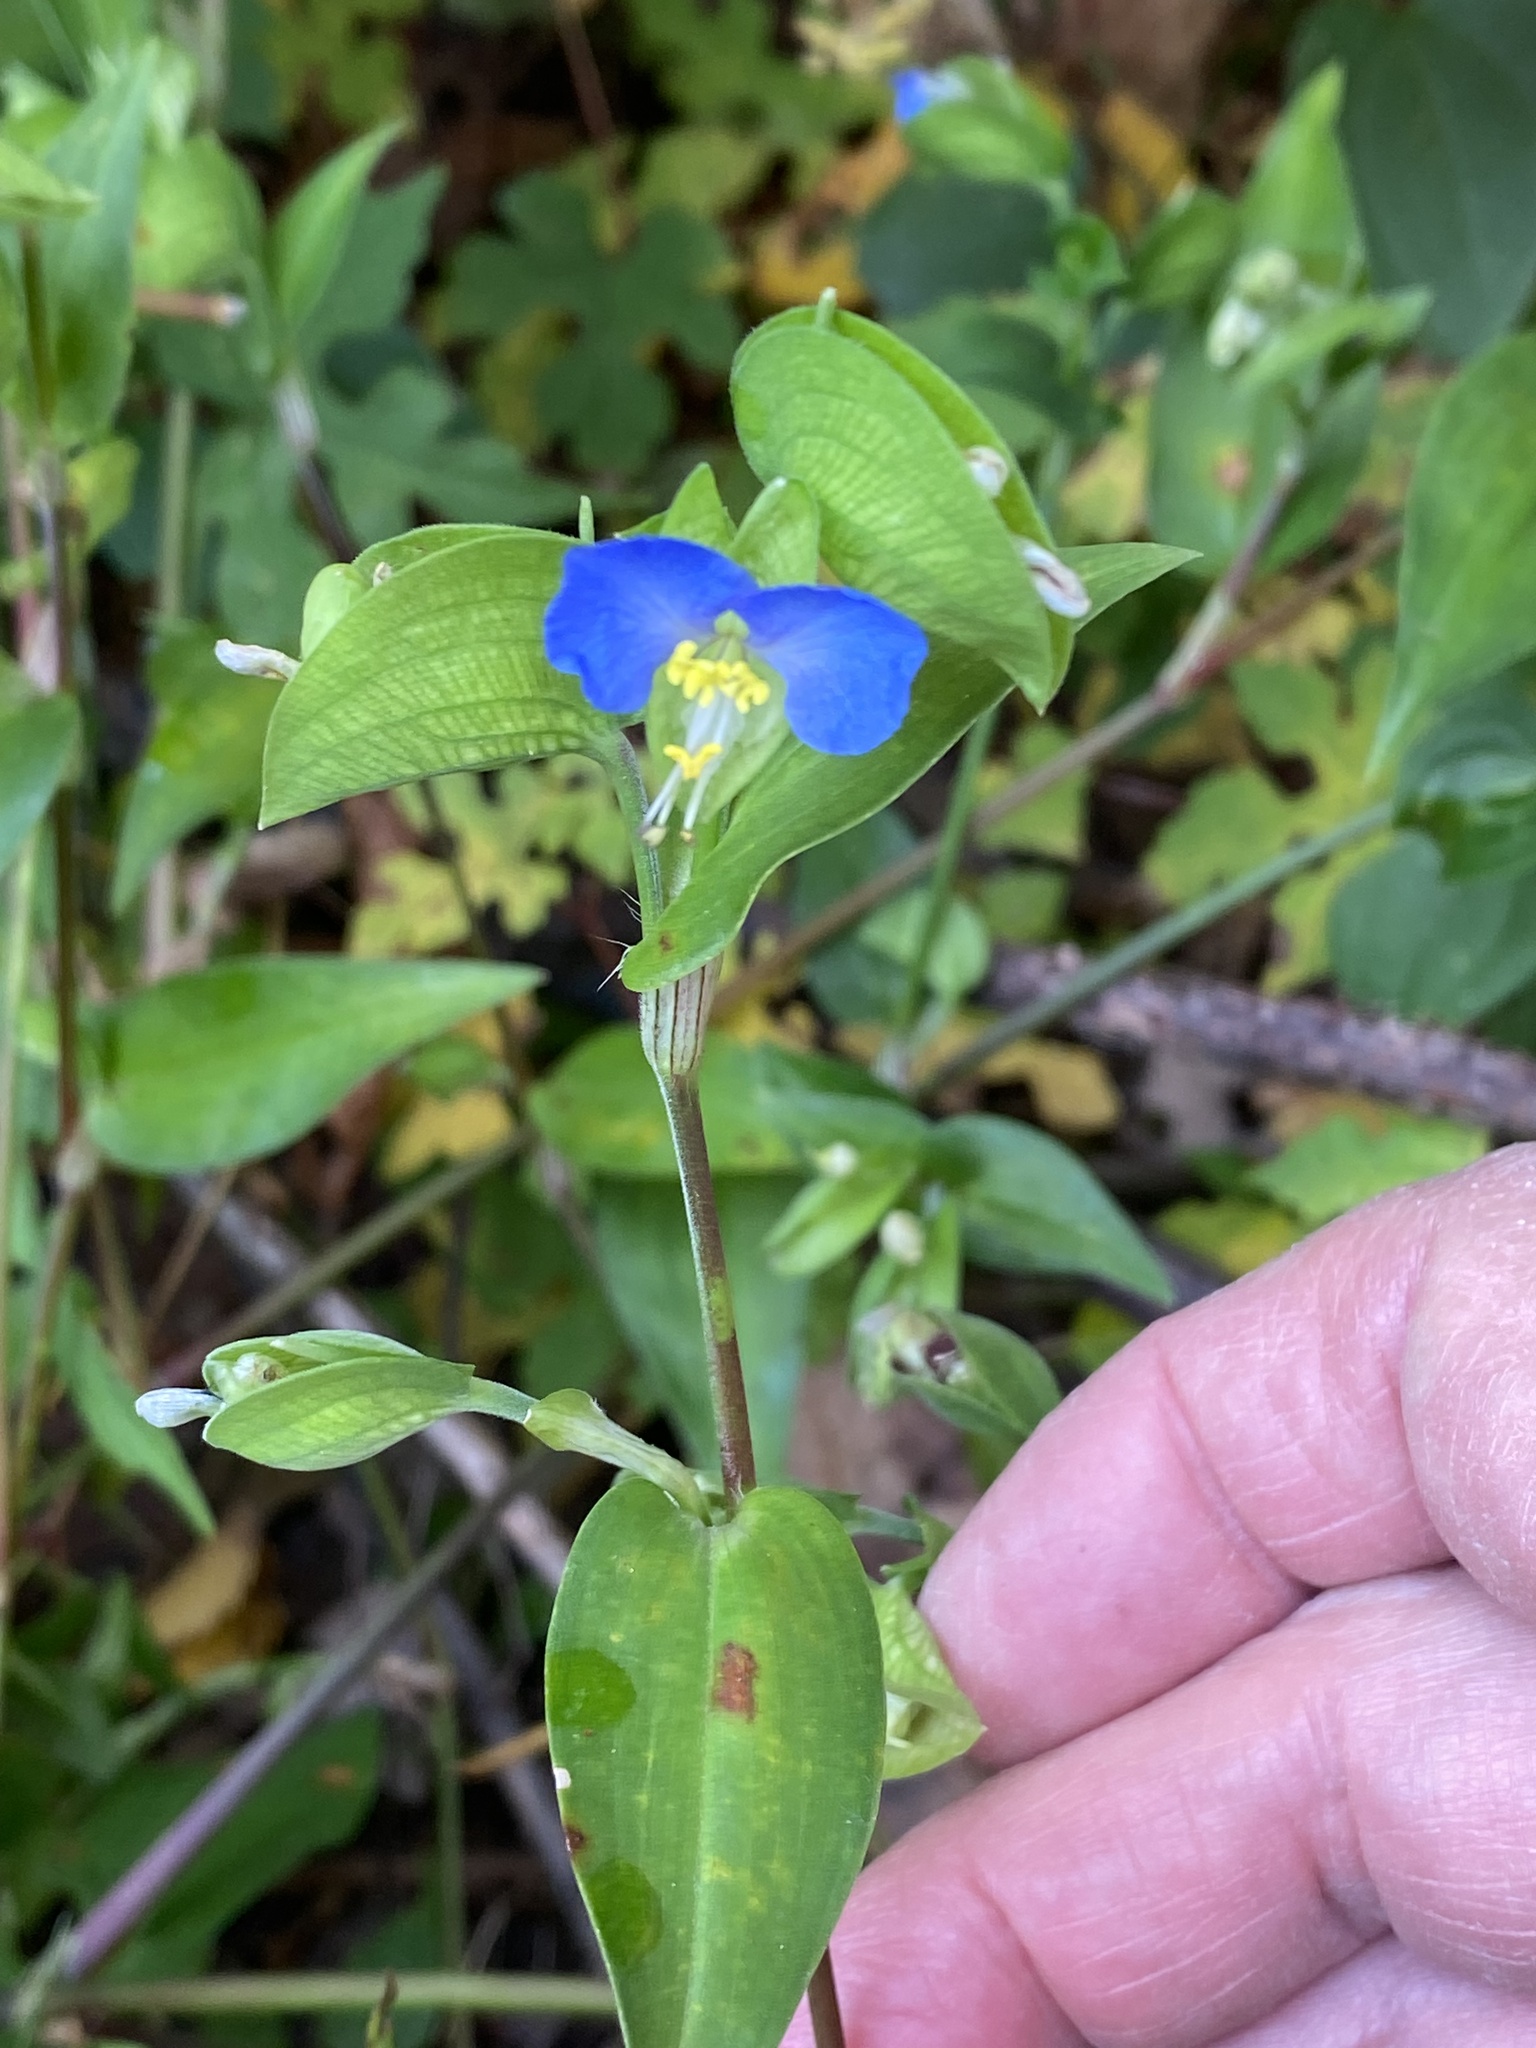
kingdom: Plantae
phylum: Tracheophyta
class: Liliopsida
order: Commelinales
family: Commelinaceae
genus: Commelina
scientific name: Commelina communis
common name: Asiatic dayflower
